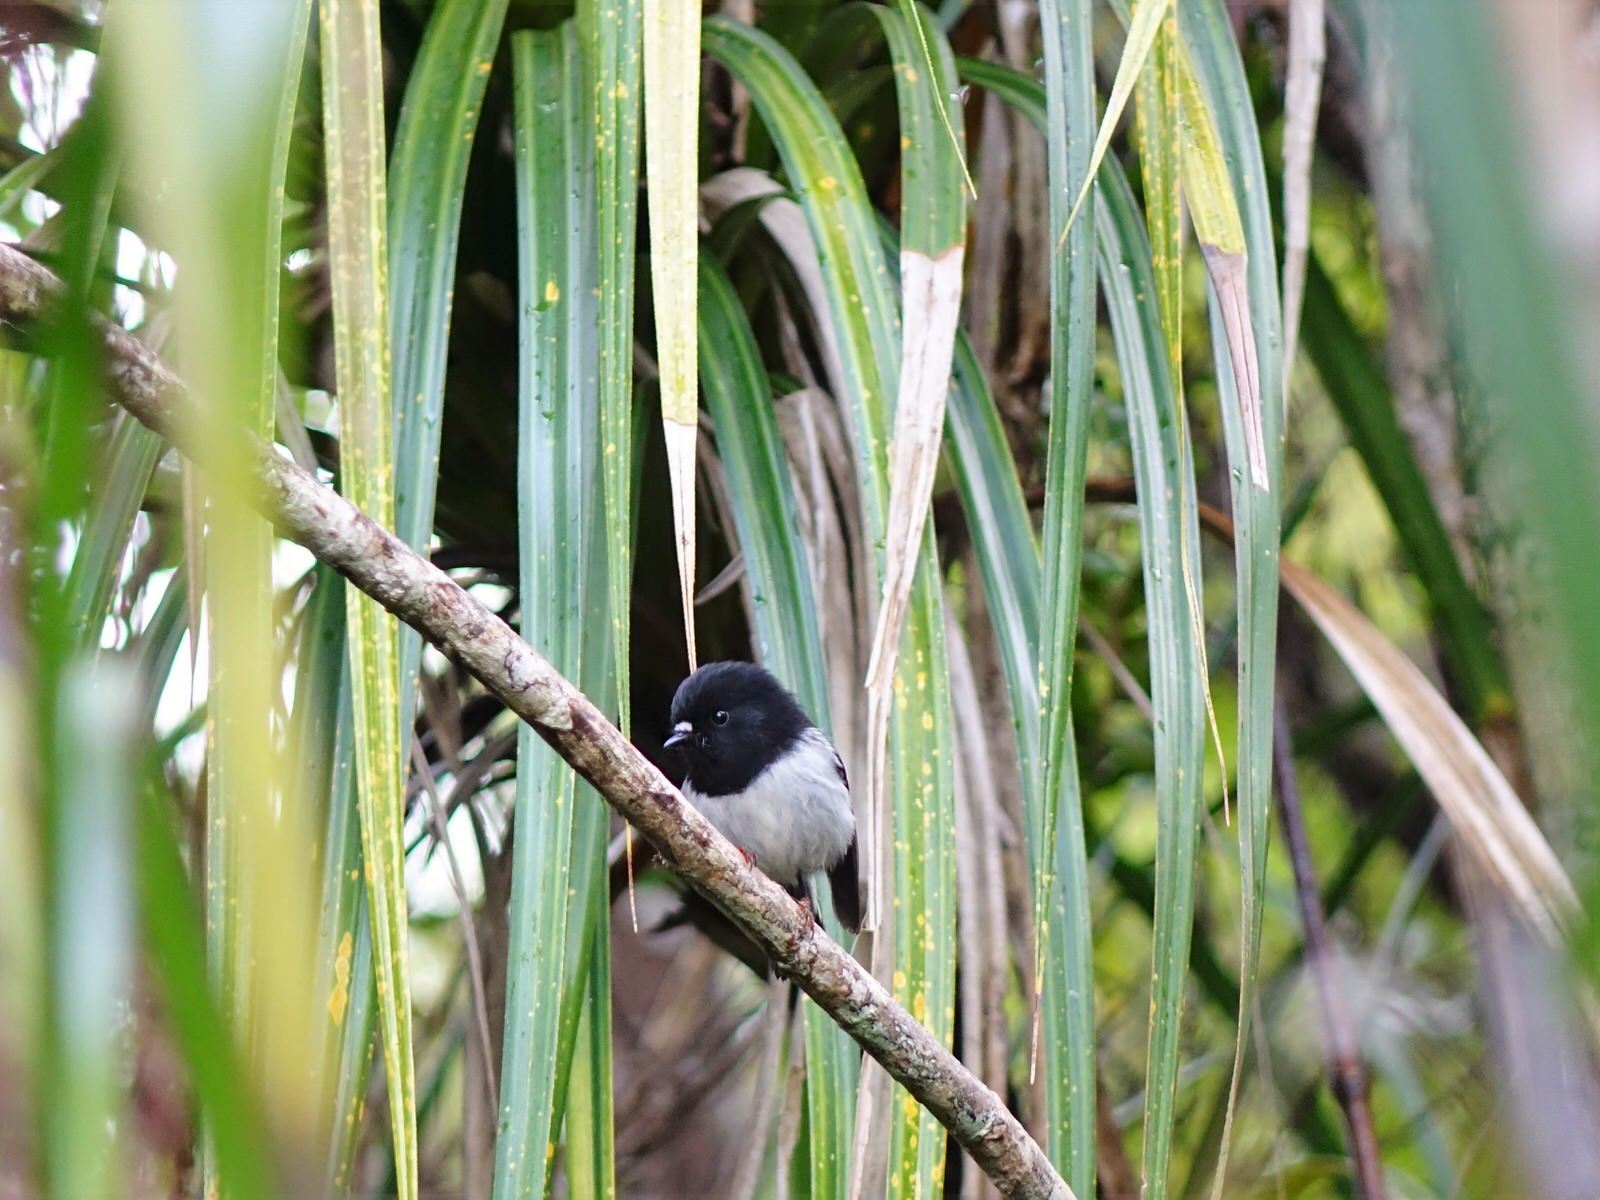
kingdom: Animalia
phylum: Chordata
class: Aves
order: Passeriformes
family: Petroicidae
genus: Petroica
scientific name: Petroica macrocephala
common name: Tomtit
